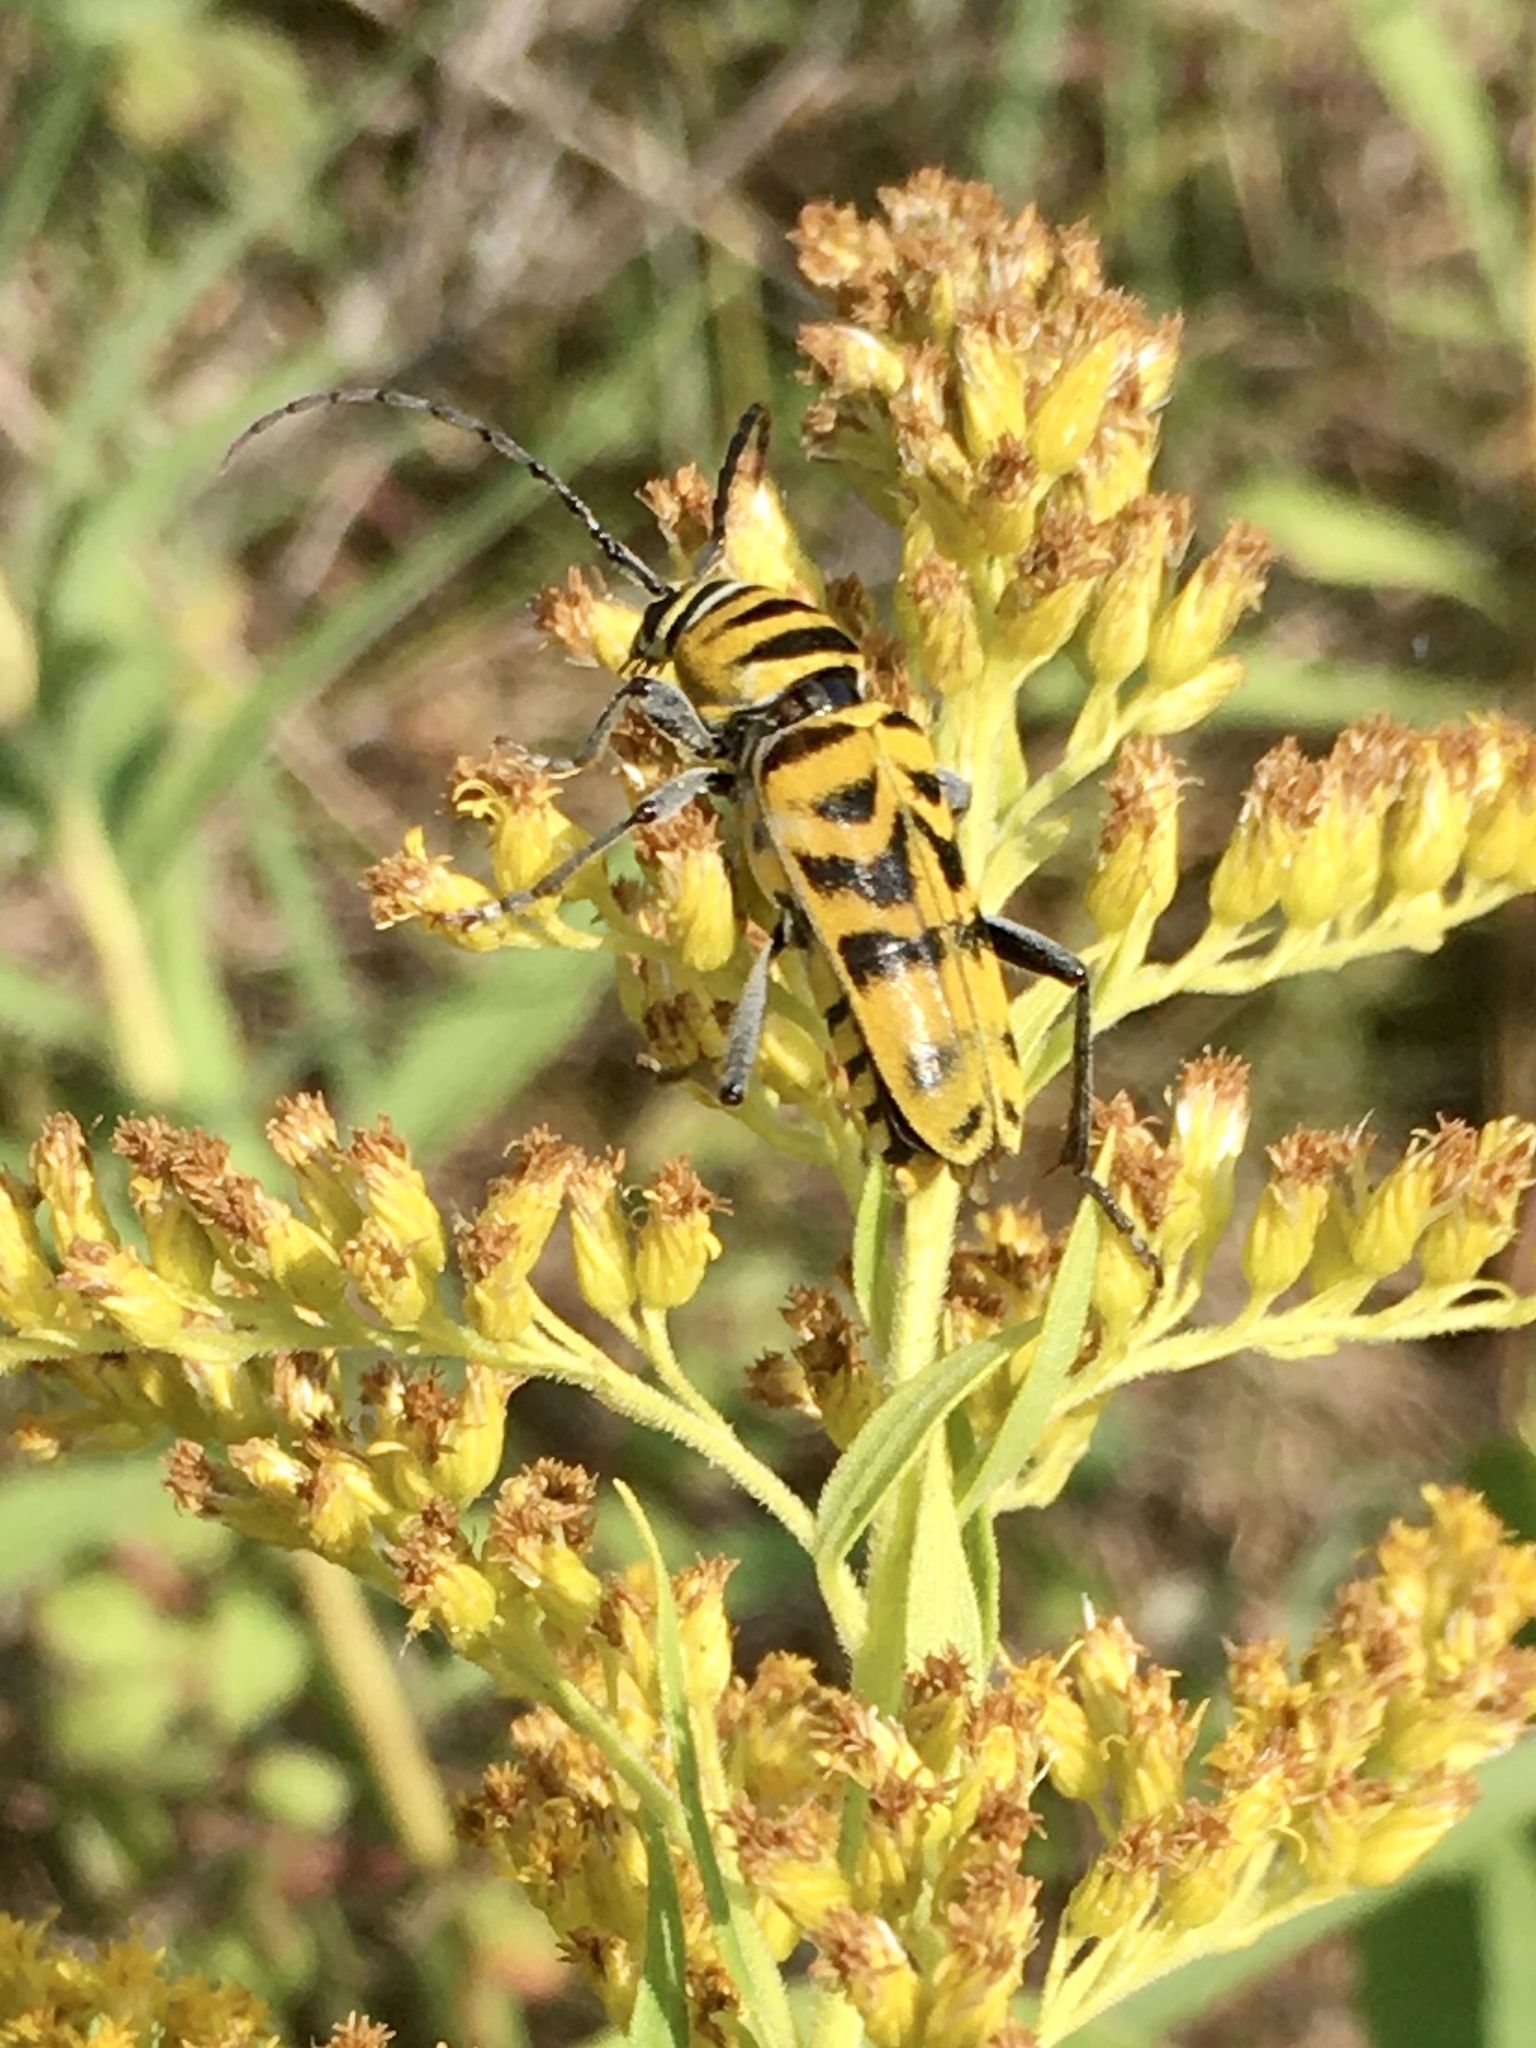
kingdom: Animalia
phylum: Arthropoda
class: Insecta
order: Coleoptera
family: Cerambycidae
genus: Megacyllene
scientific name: Megacyllene powersi
